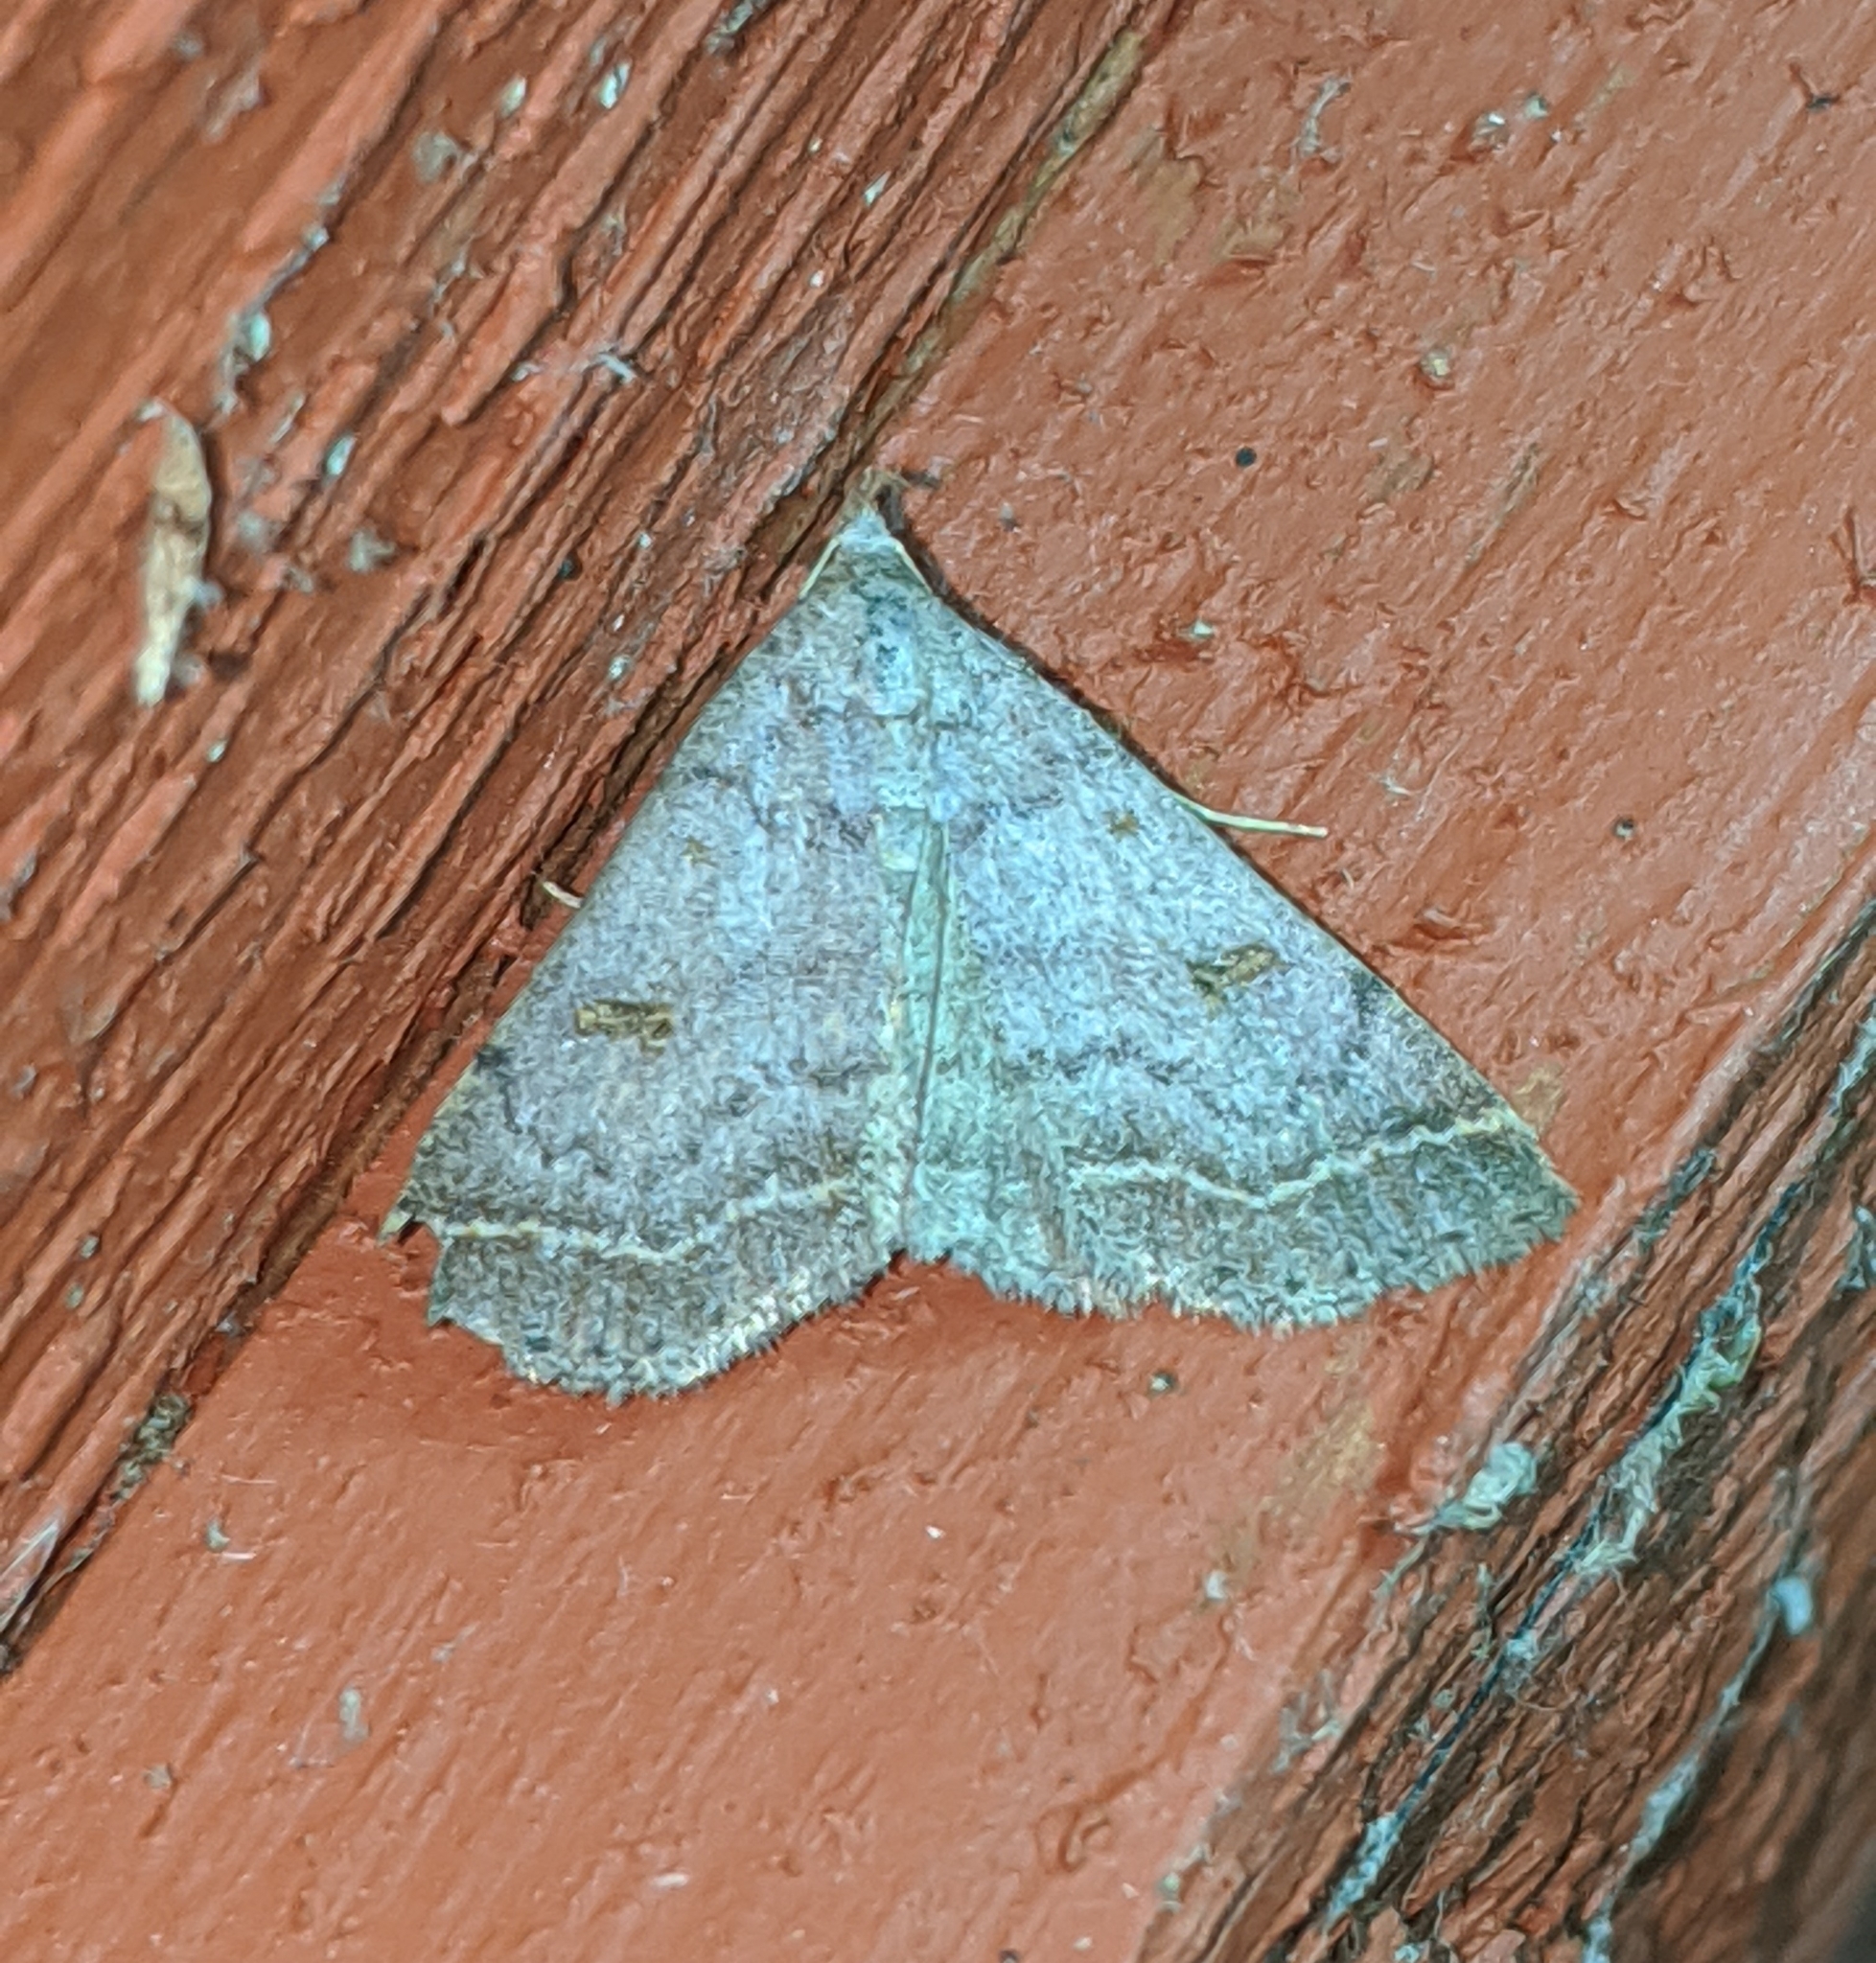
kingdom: Animalia
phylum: Arthropoda
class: Insecta
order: Lepidoptera
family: Erebidae
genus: Bleptina
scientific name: Bleptina caradrinalis
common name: Bent-winged owlet
